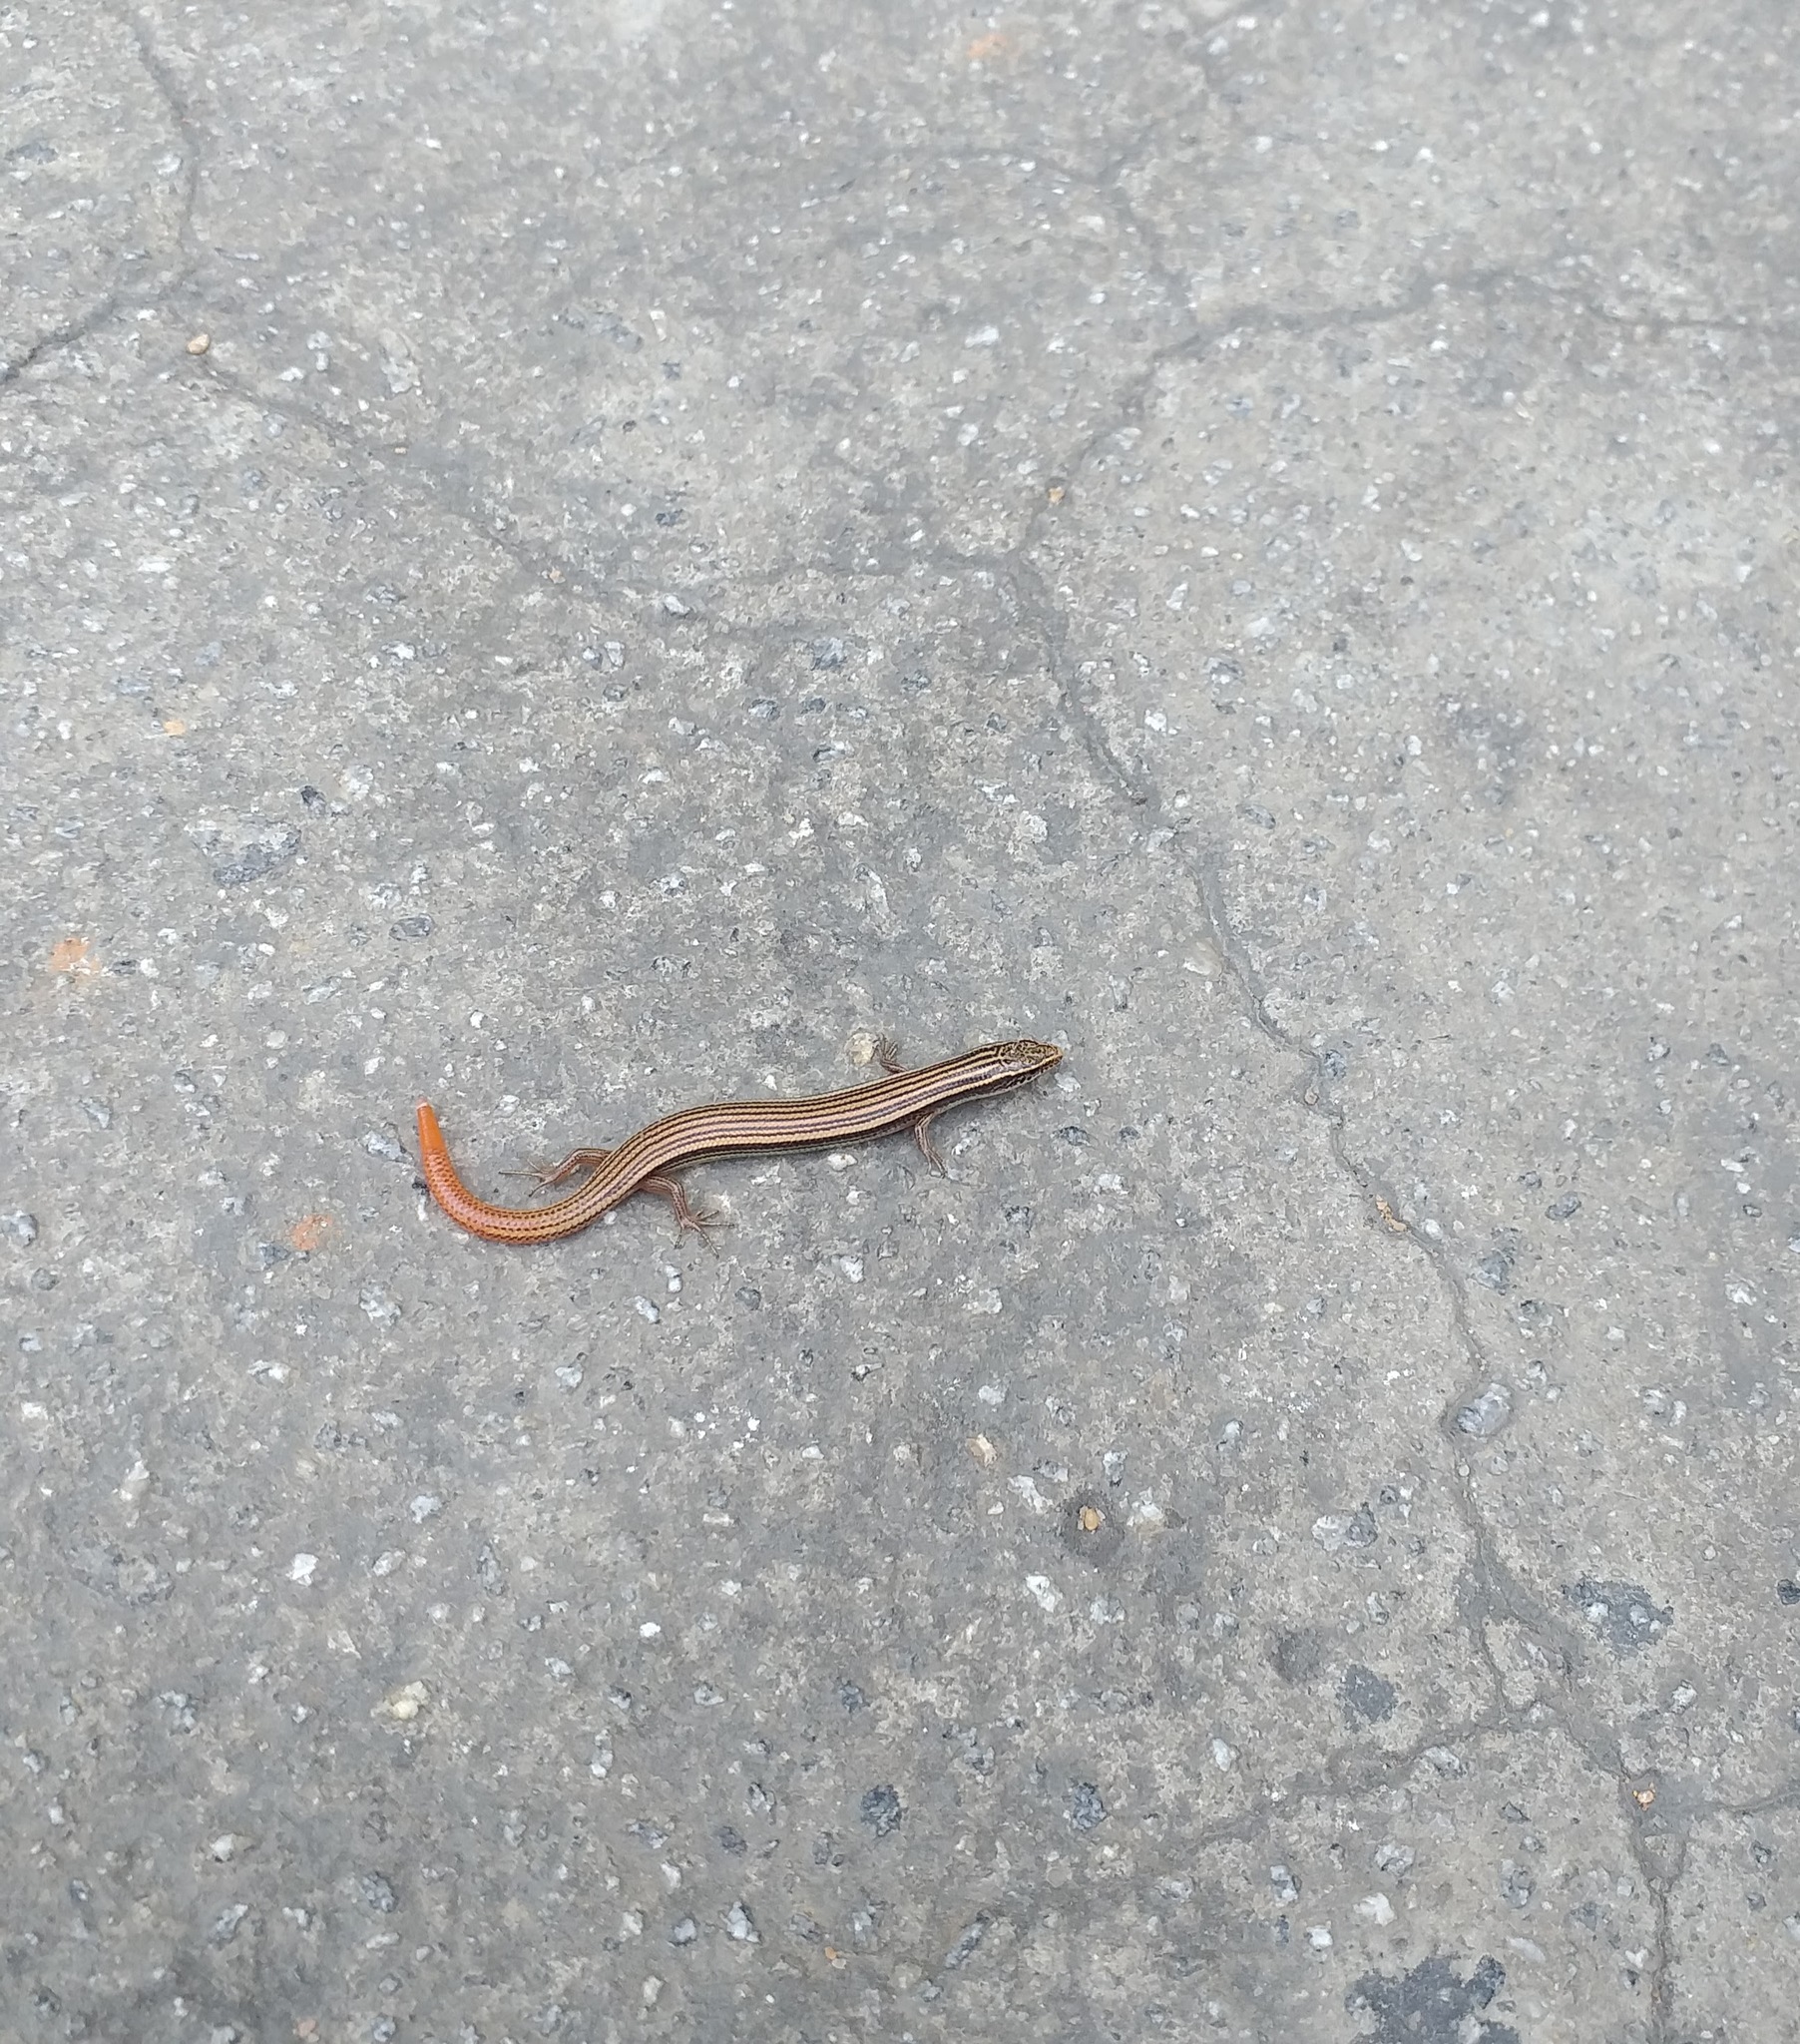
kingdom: Animalia
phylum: Chordata
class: Squamata
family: Scincidae
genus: Riopa
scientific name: Riopa punctata
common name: Common dotted garden skink
